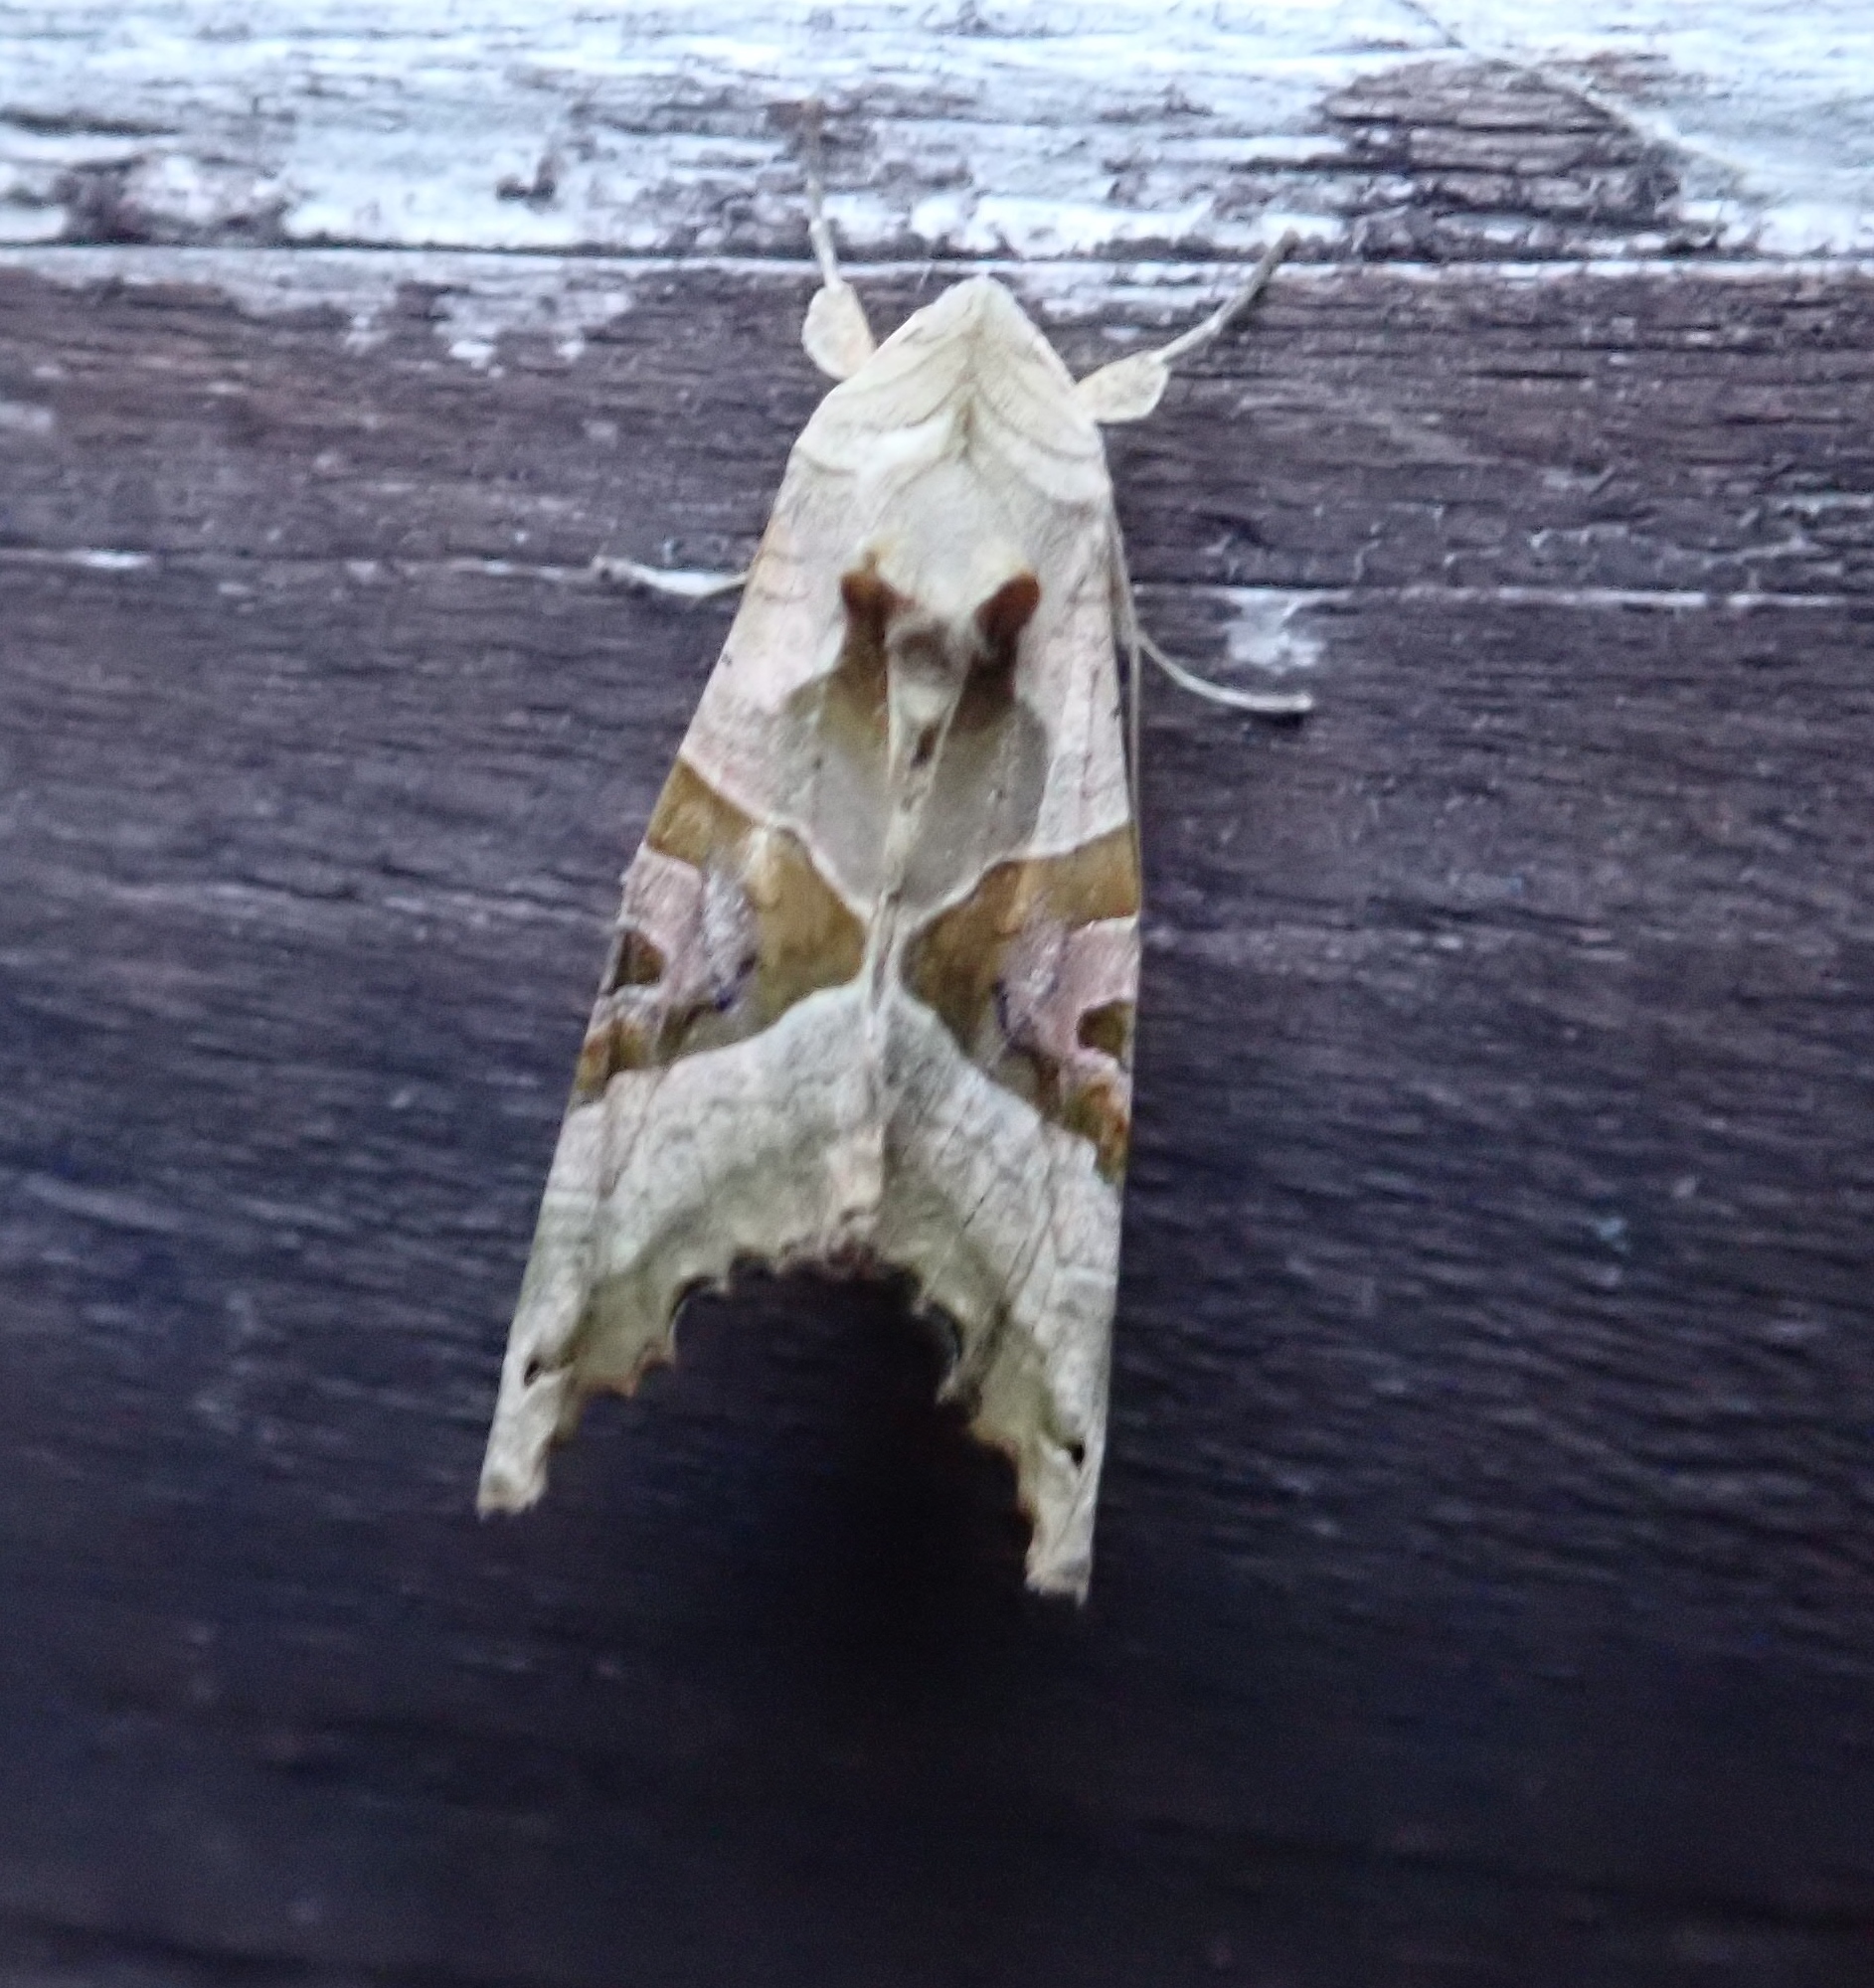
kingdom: Animalia
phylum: Arthropoda
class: Insecta
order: Lepidoptera
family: Noctuidae
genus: Phlogophora
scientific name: Phlogophora meticulosa
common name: Angle shades
